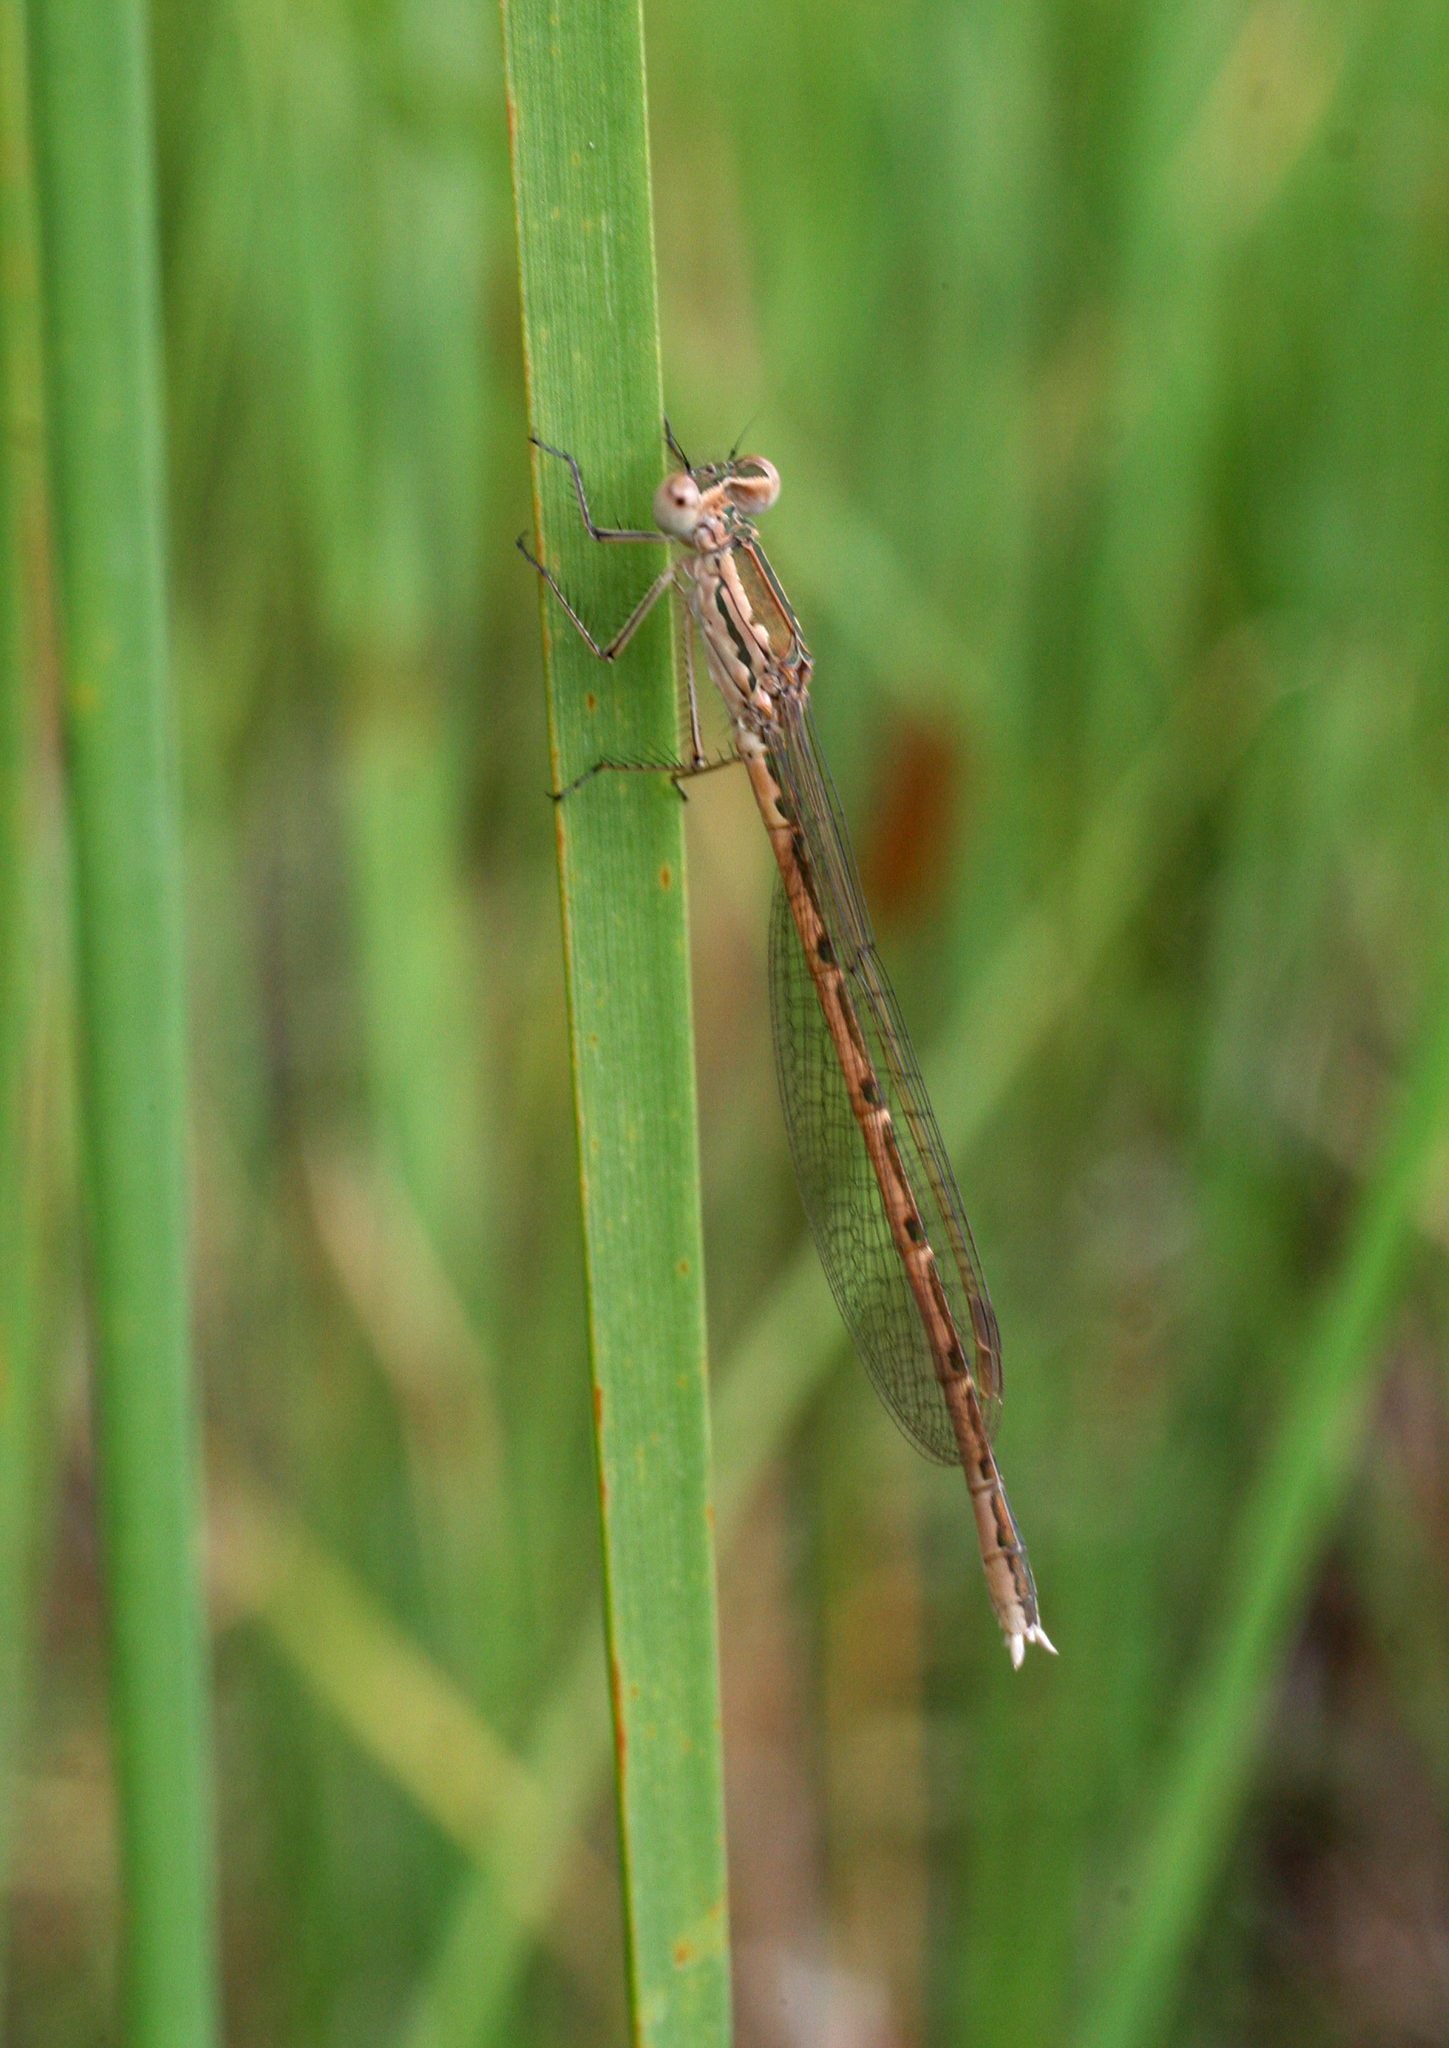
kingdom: Animalia
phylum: Arthropoda
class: Insecta
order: Odonata
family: Lestidae
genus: Sympecma
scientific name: Sympecma paedisca
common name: Siberian winter damsel
